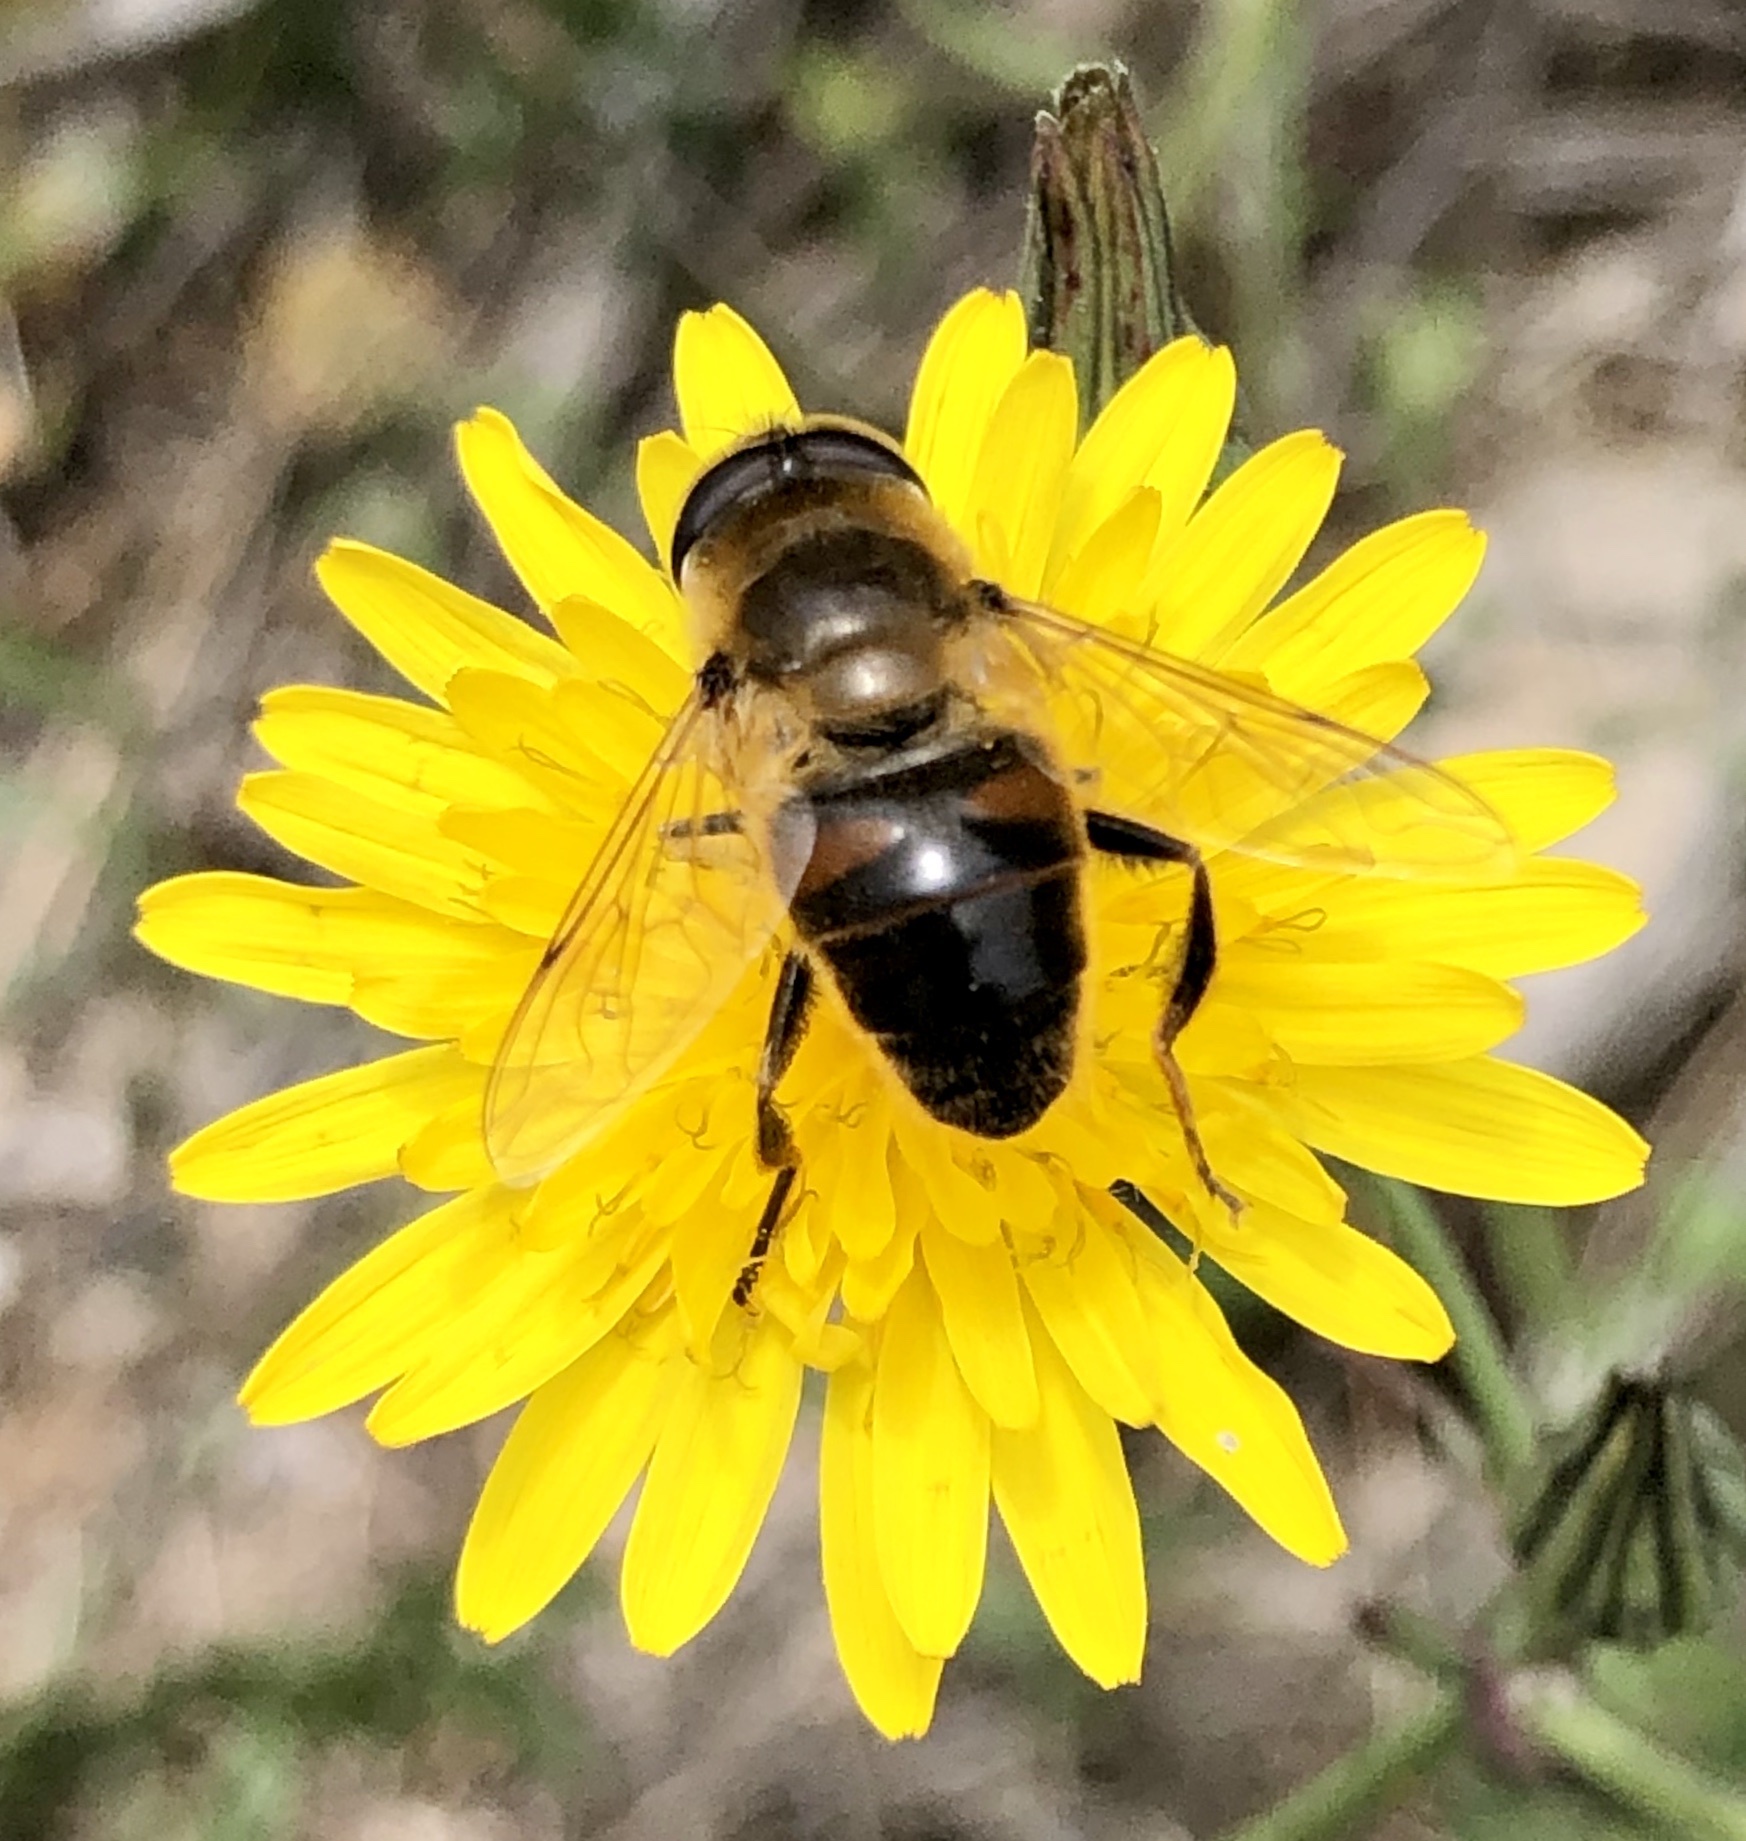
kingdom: Animalia
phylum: Arthropoda
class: Insecta
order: Diptera
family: Syrphidae
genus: Eristalis
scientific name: Eristalis tenax
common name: Drone fly
